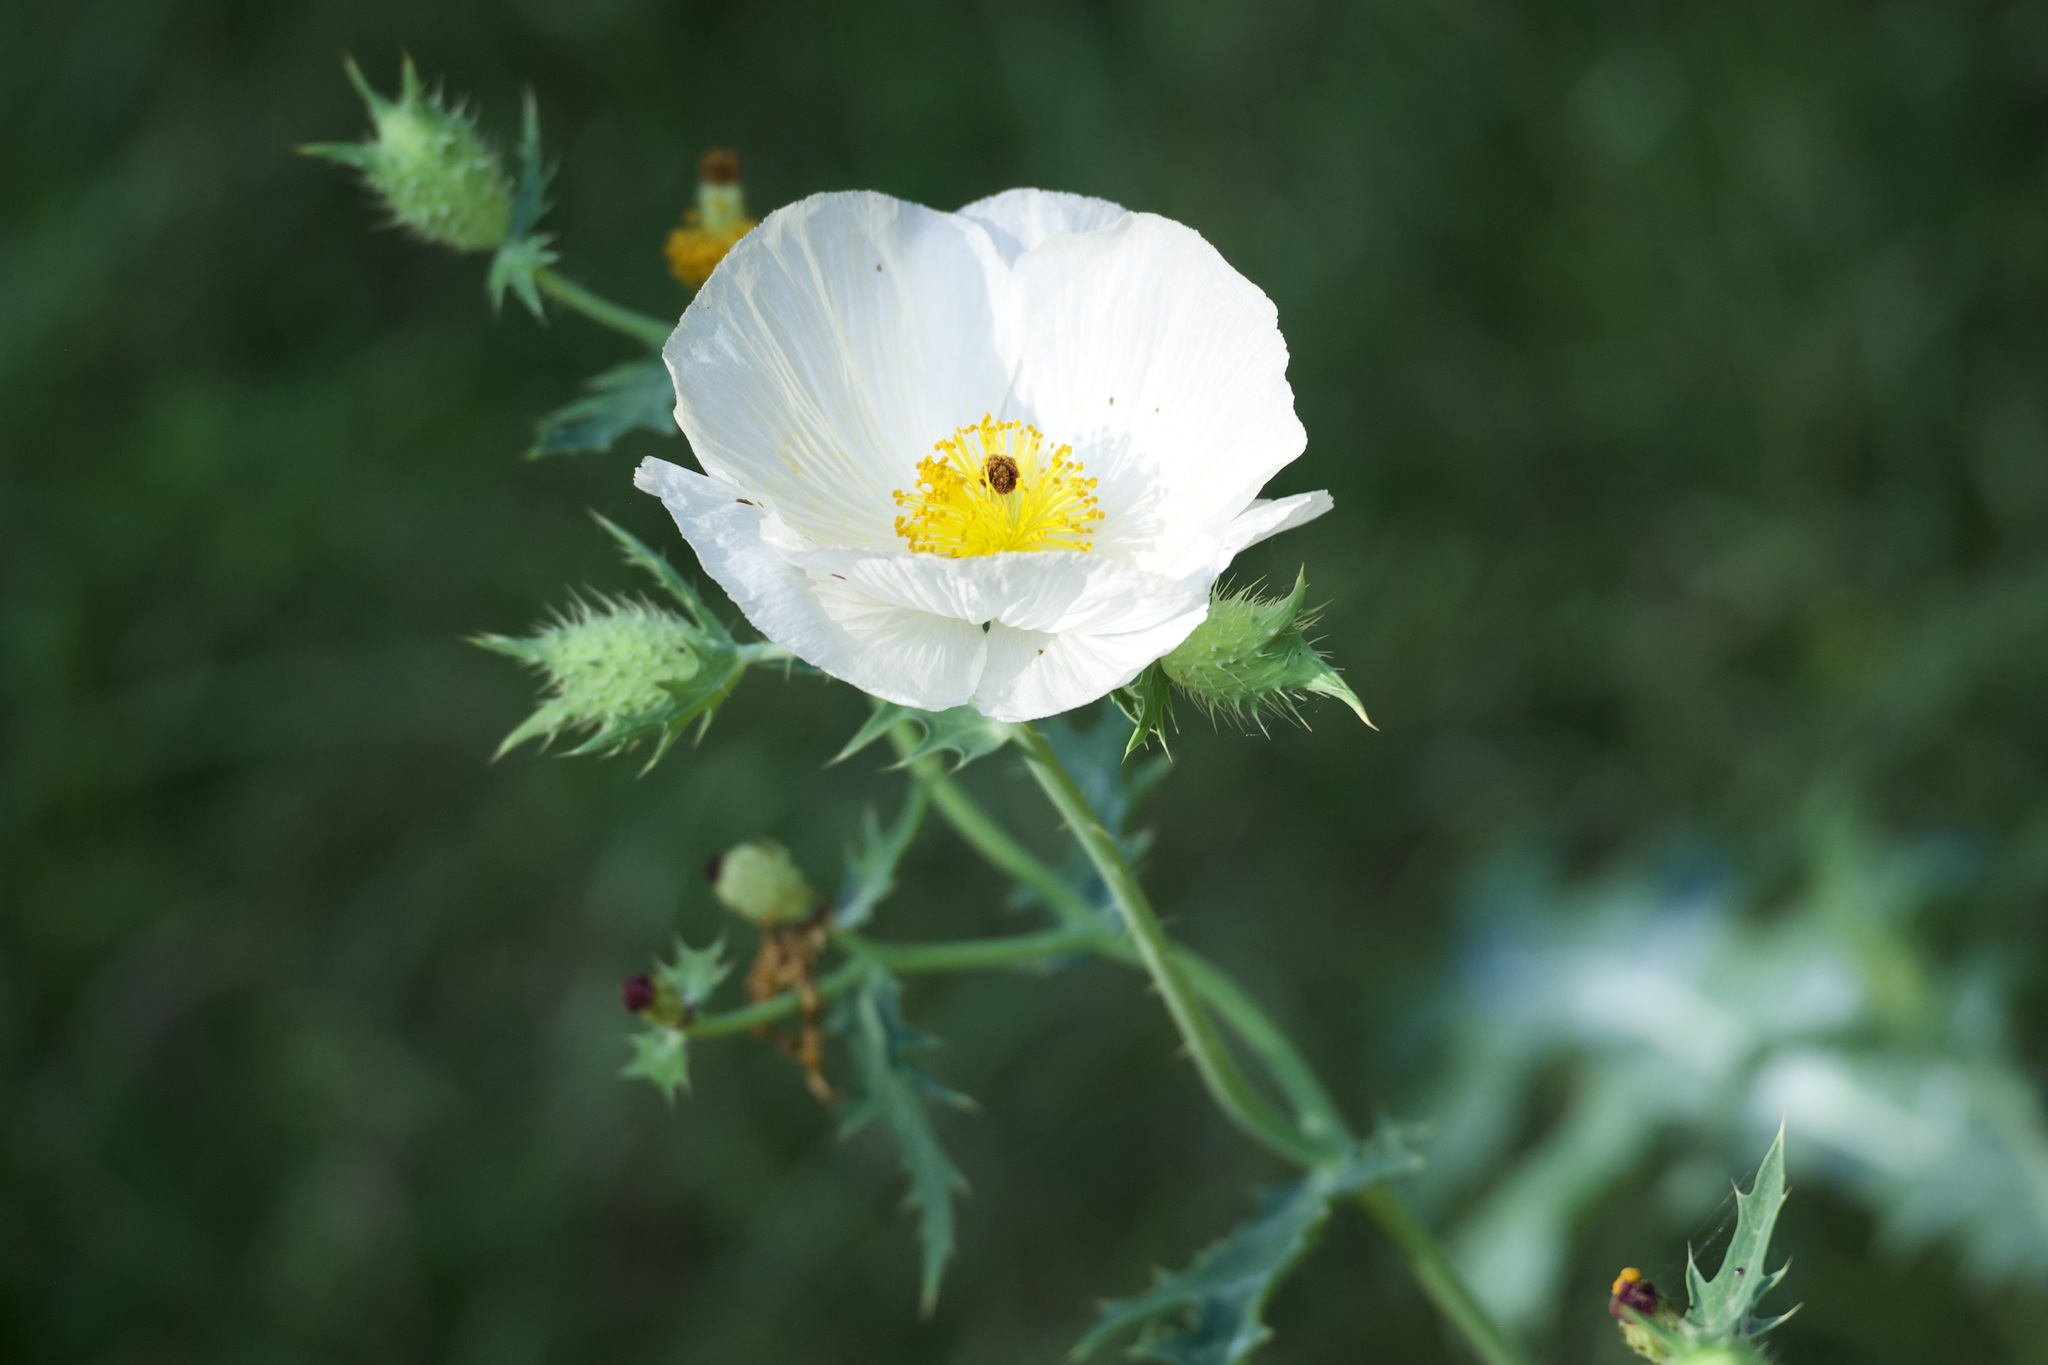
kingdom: Plantae
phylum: Tracheophyta
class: Magnoliopsida
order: Ranunculales
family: Papaveraceae
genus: Argemone
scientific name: Argemone albiflora
